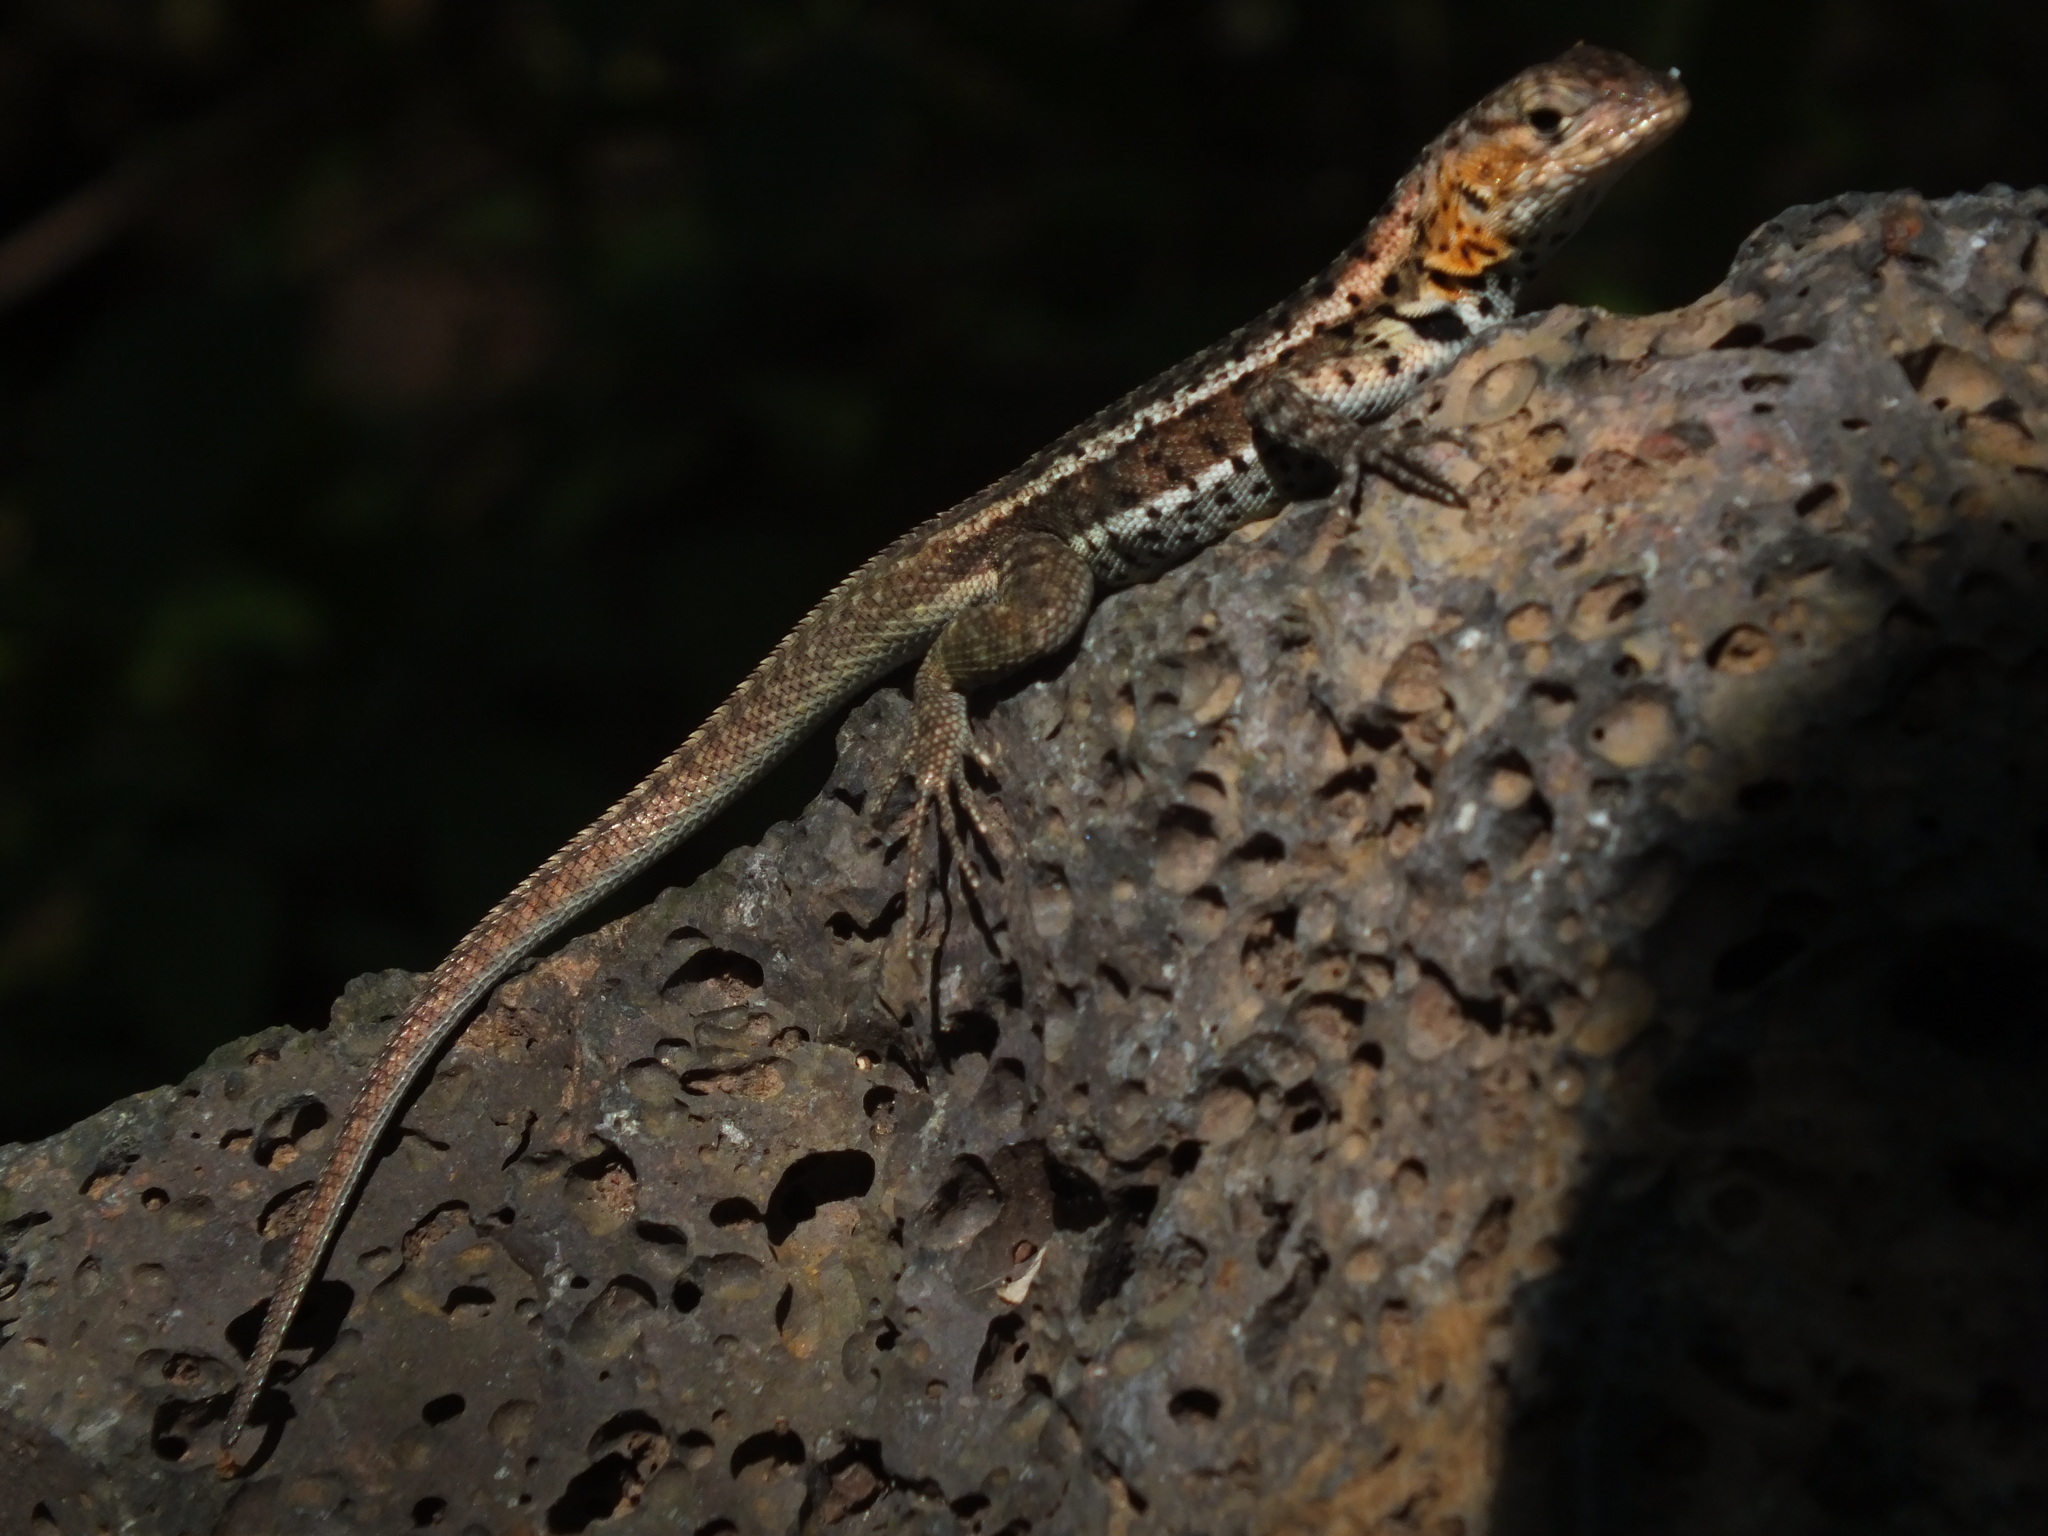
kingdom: Animalia
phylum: Chordata
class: Squamata
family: Tropiduridae
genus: Microlophus
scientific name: Microlophus albemarlensis
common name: Galapagos lava lizard
